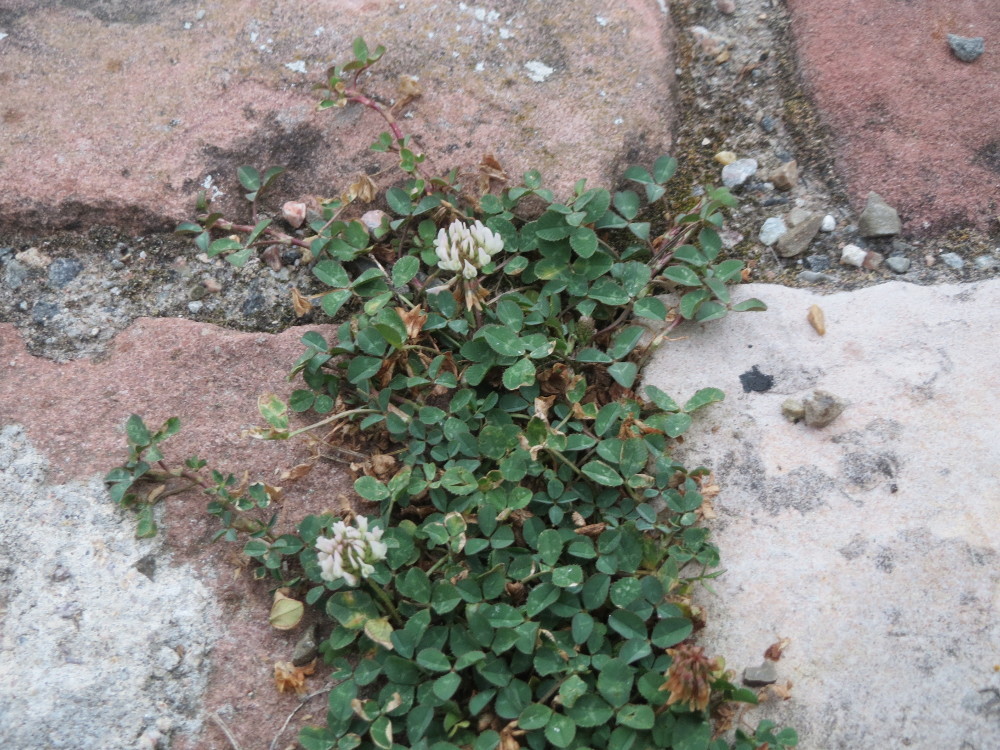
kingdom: Plantae
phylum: Tracheophyta
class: Magnoliopsida
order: Fabales
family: Fabaceae
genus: Trifolium
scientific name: Trifolium repens
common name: White clover
